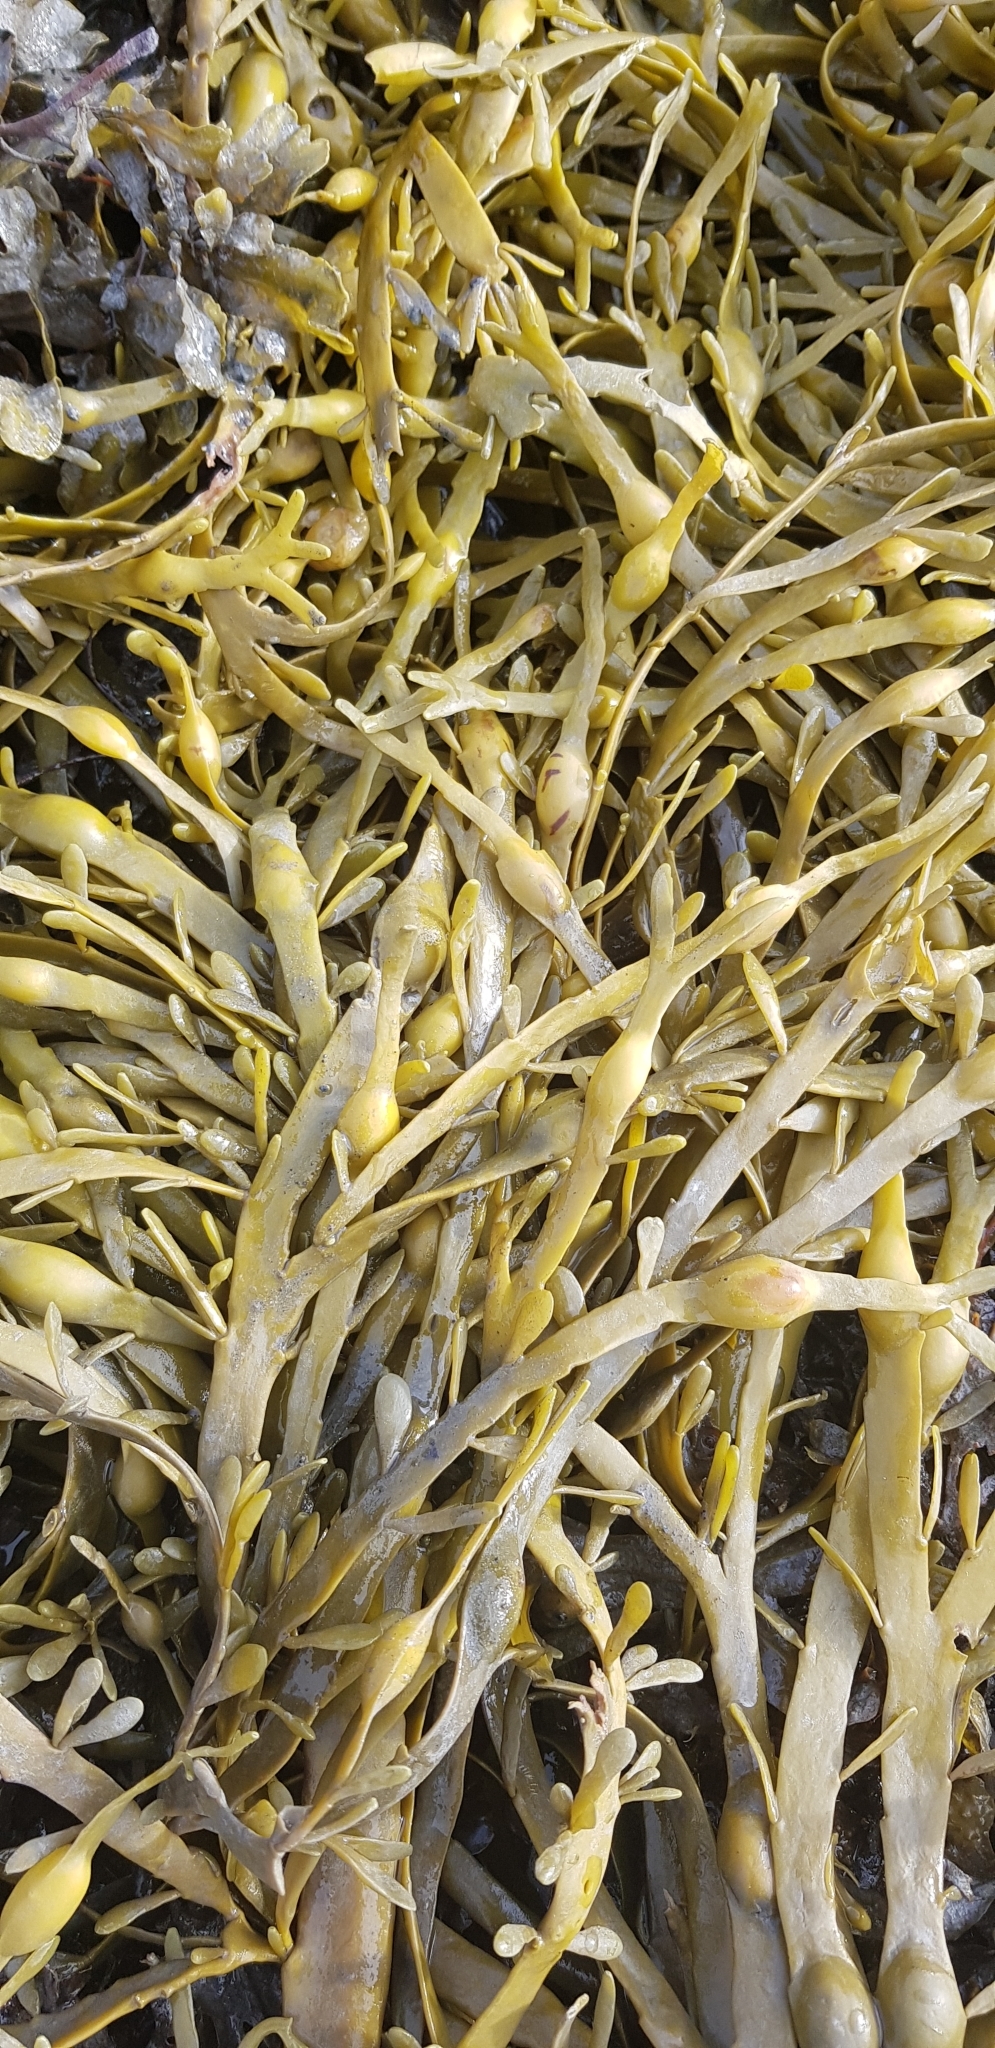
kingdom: Chromista
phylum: Ochrophyta
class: Phaeophyceae
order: Fucales
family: Fucaceae
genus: Ascophyllum
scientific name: Ascophyllum nodosum
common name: Knotted wrack
